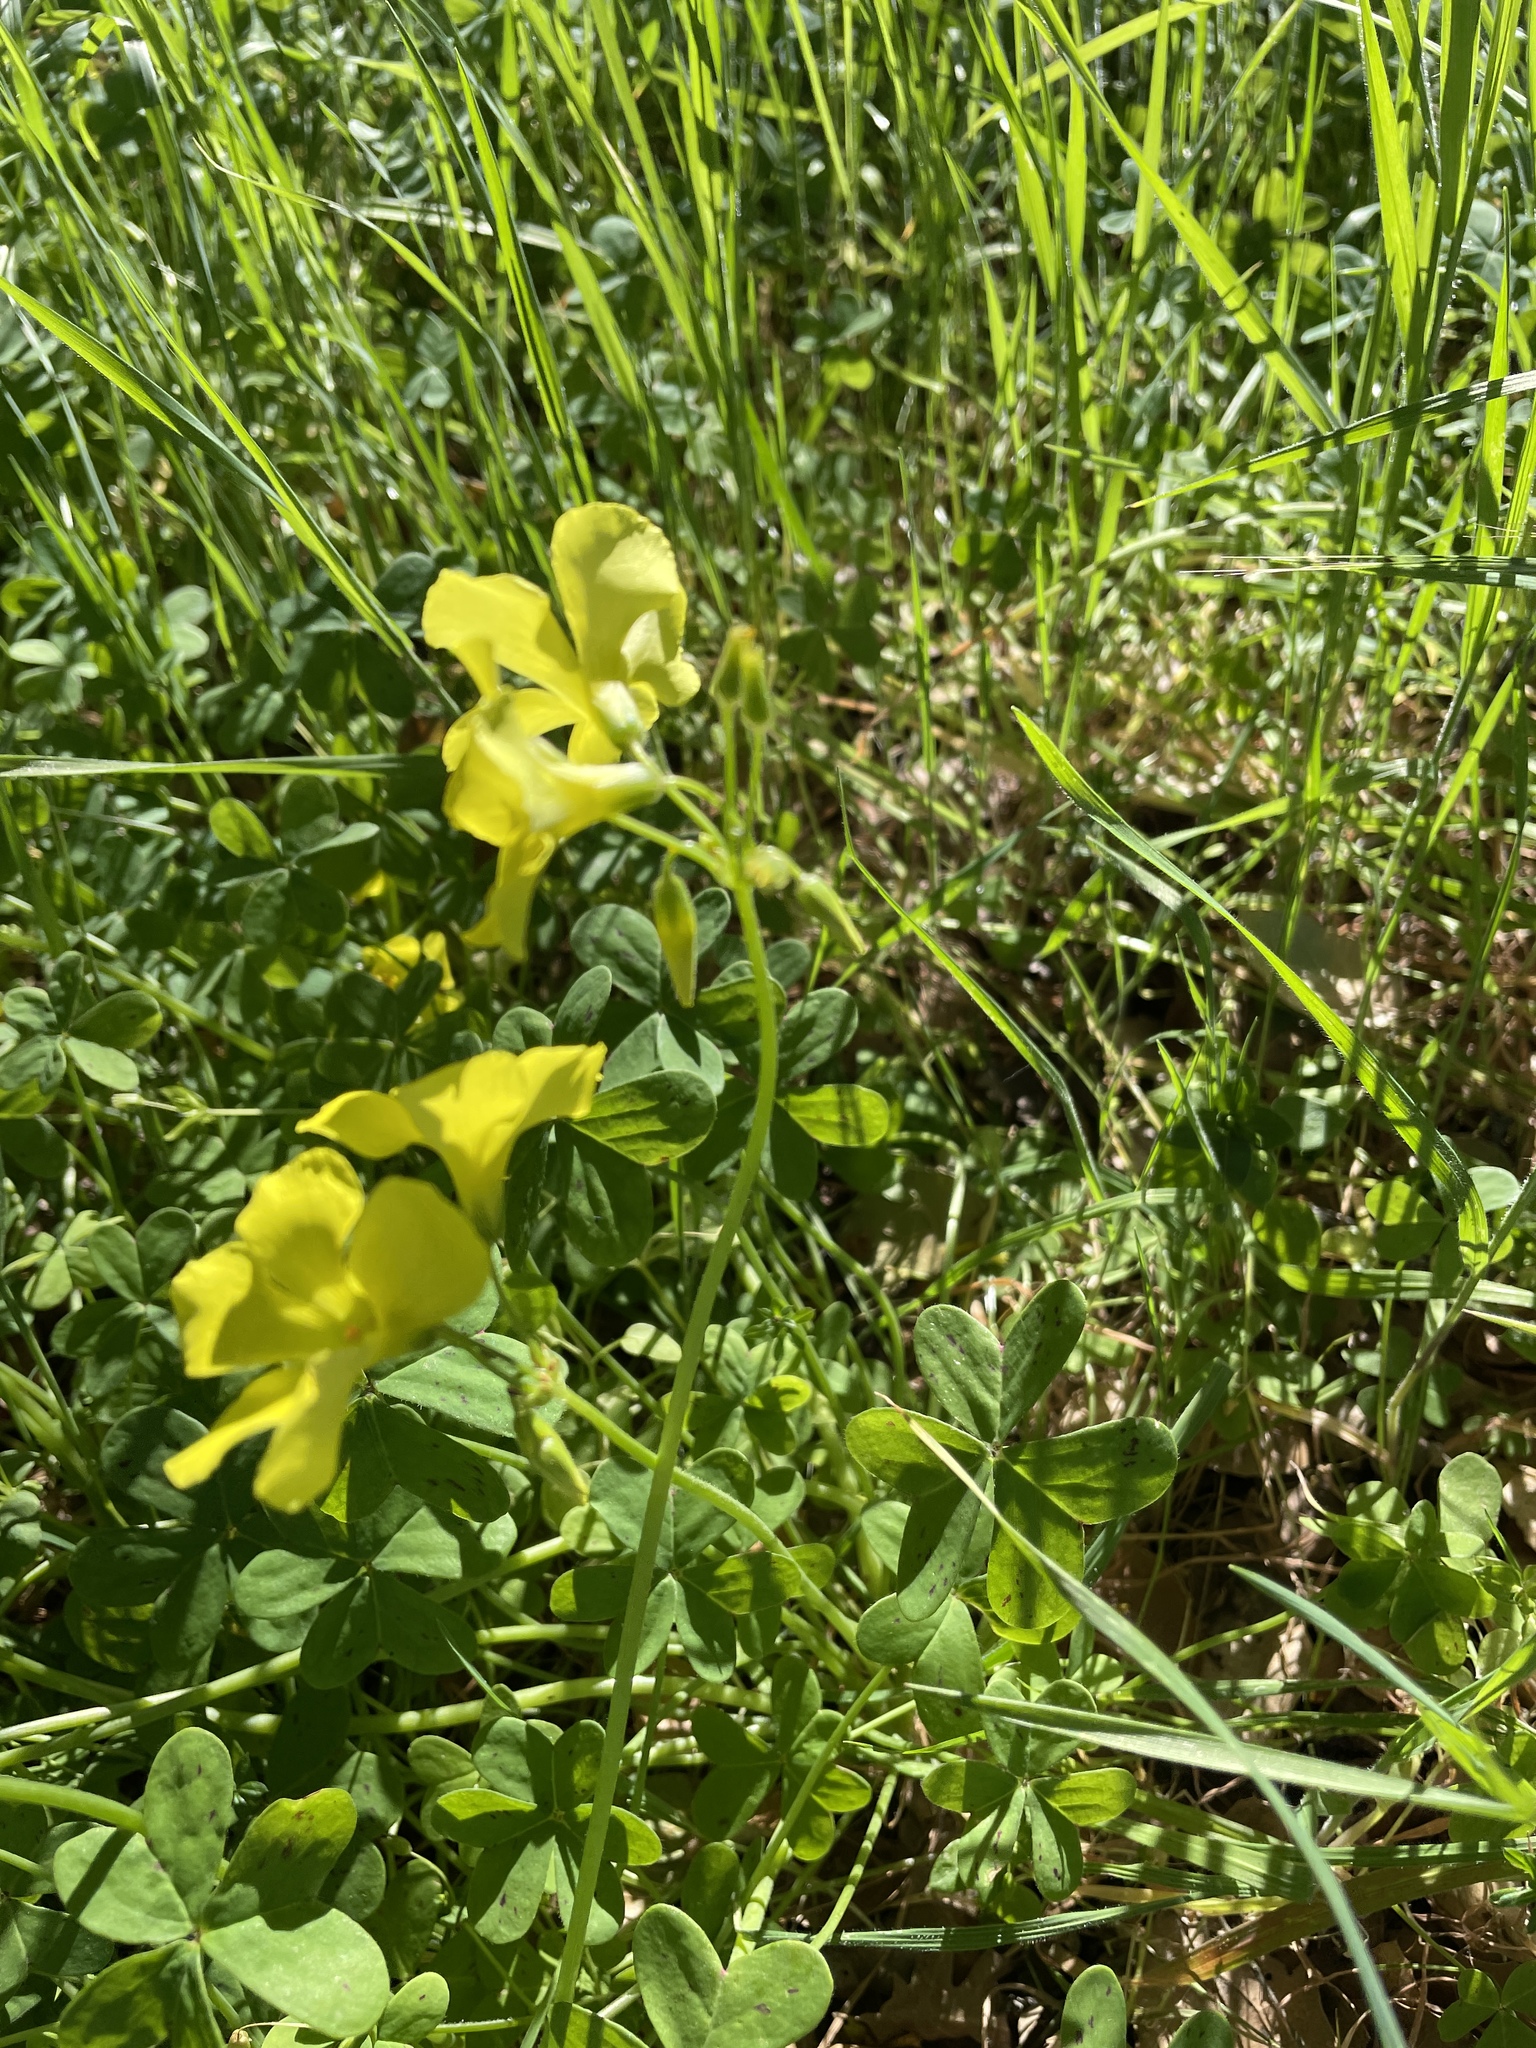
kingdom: Plantae
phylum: Tracheophyta
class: Magnoliopsida
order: Oxalidales
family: Oxalidaceae
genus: Oxalis
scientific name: Oxalis pes-caprae
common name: Bermuda-buttercup
